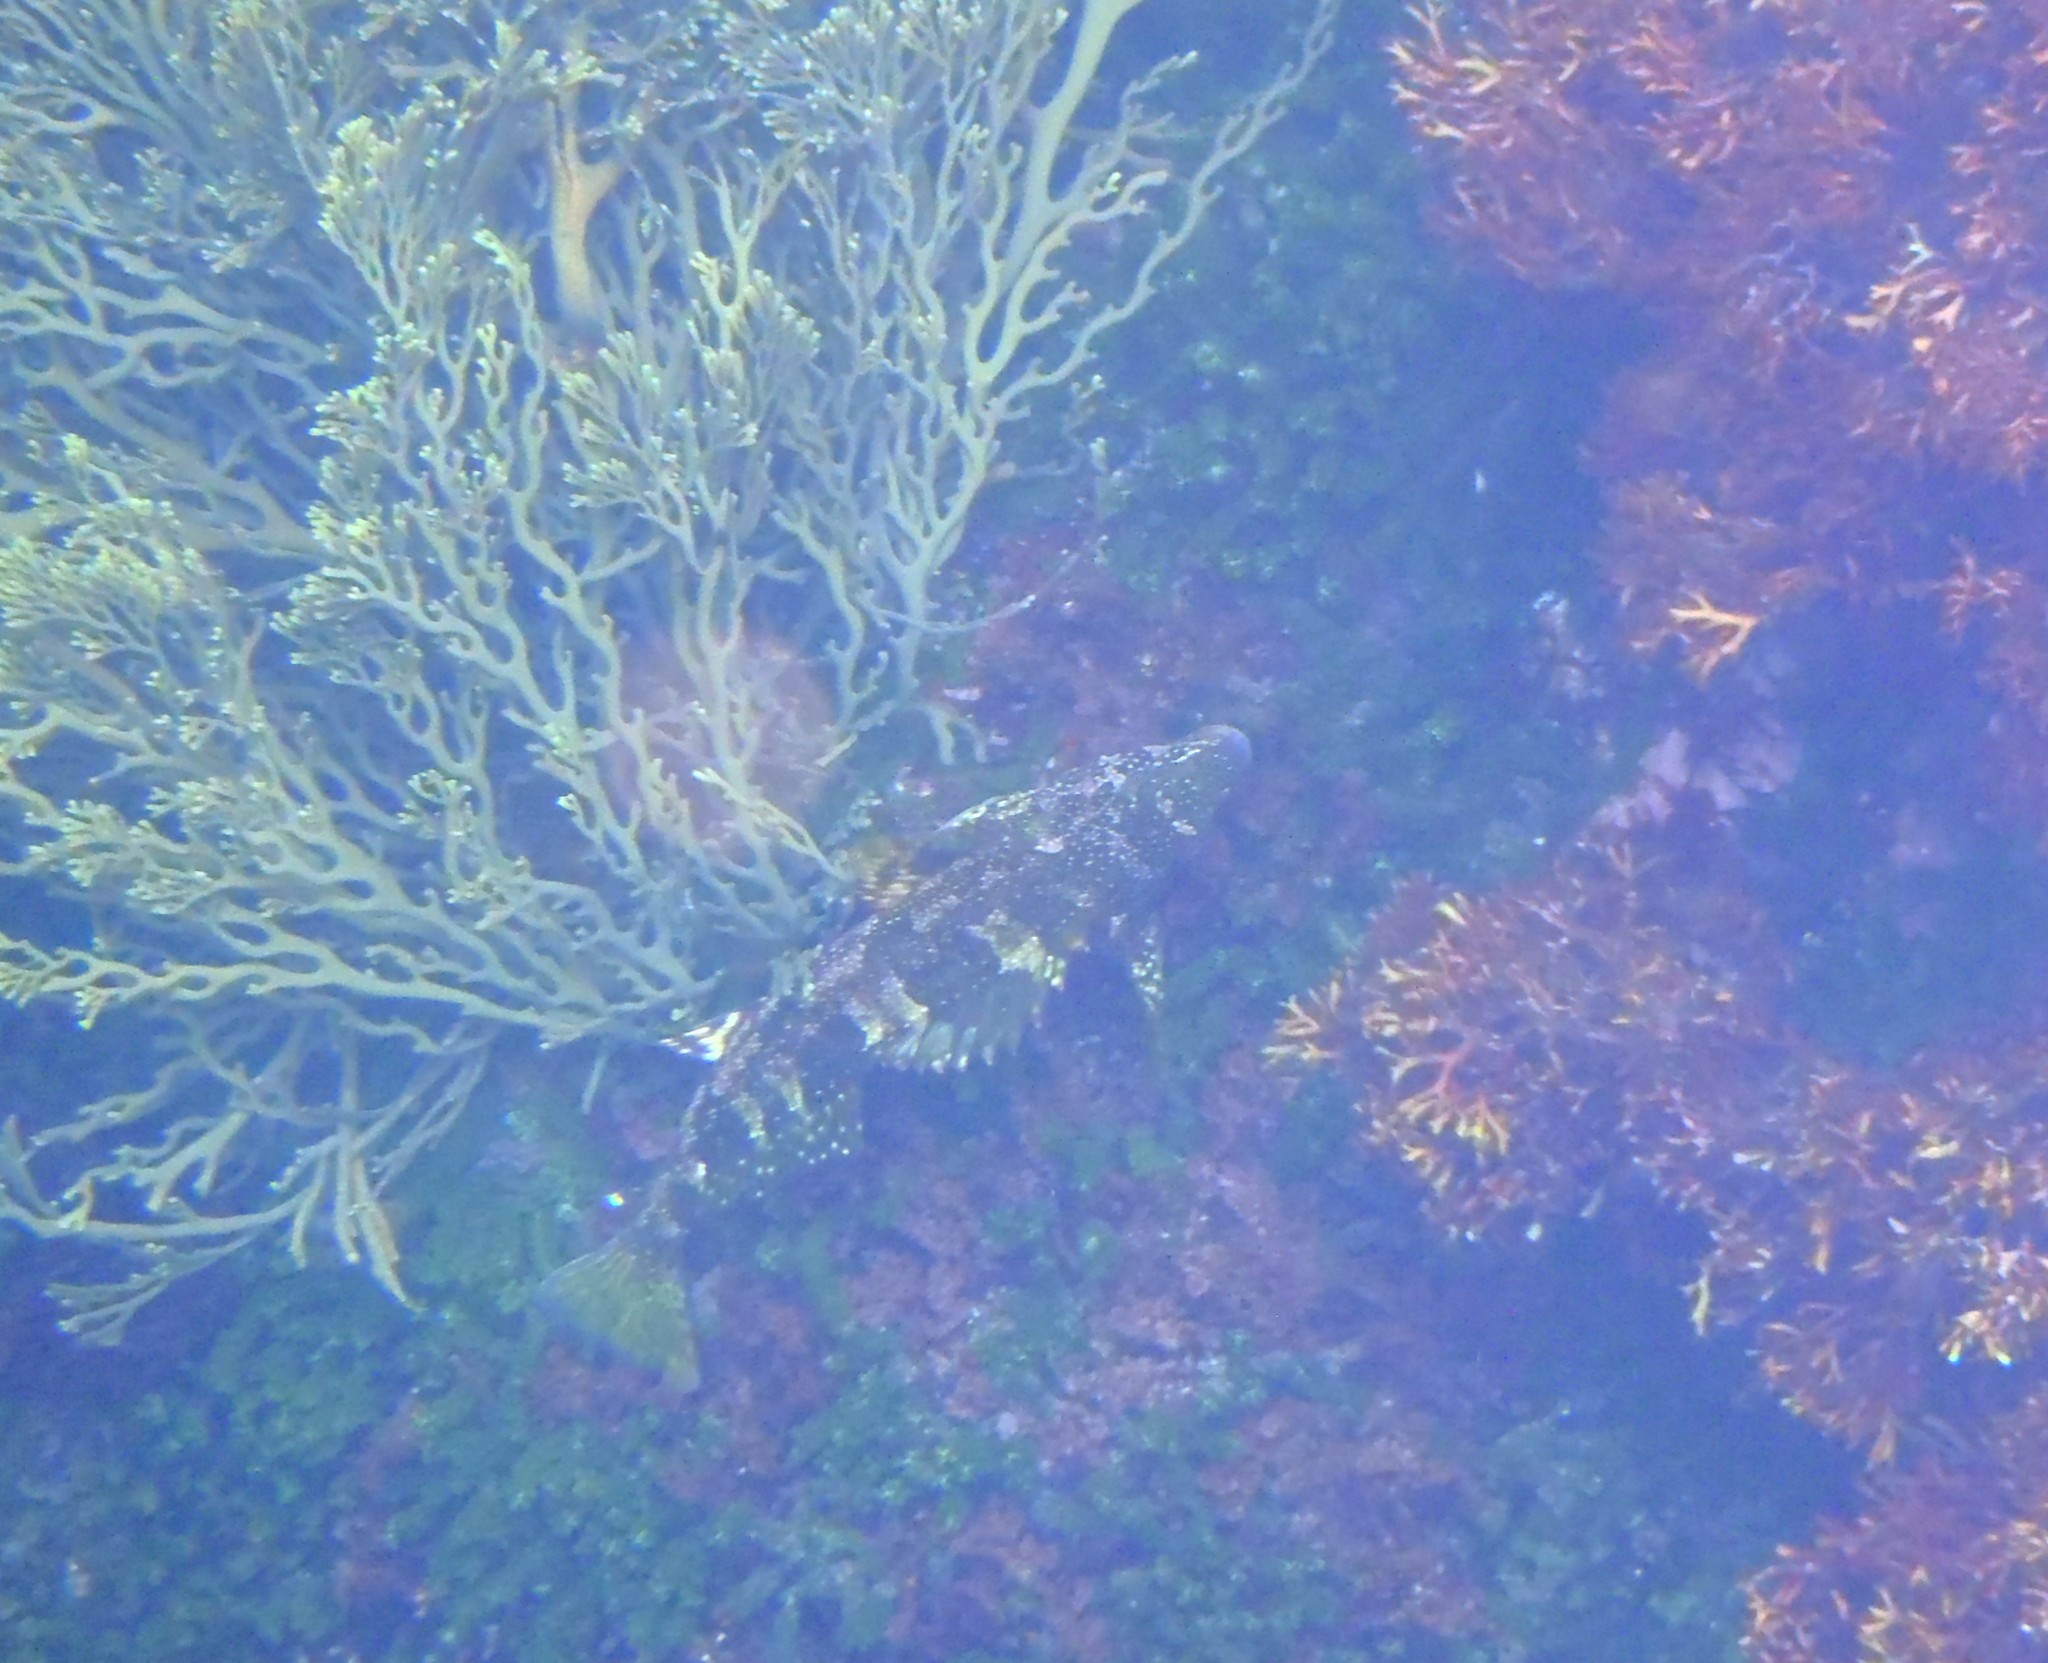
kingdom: Animalia
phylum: Chordata
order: Perciformes
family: Chironemidae
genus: Chironemus
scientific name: Chironemus marmoratus
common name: Kelpfish
